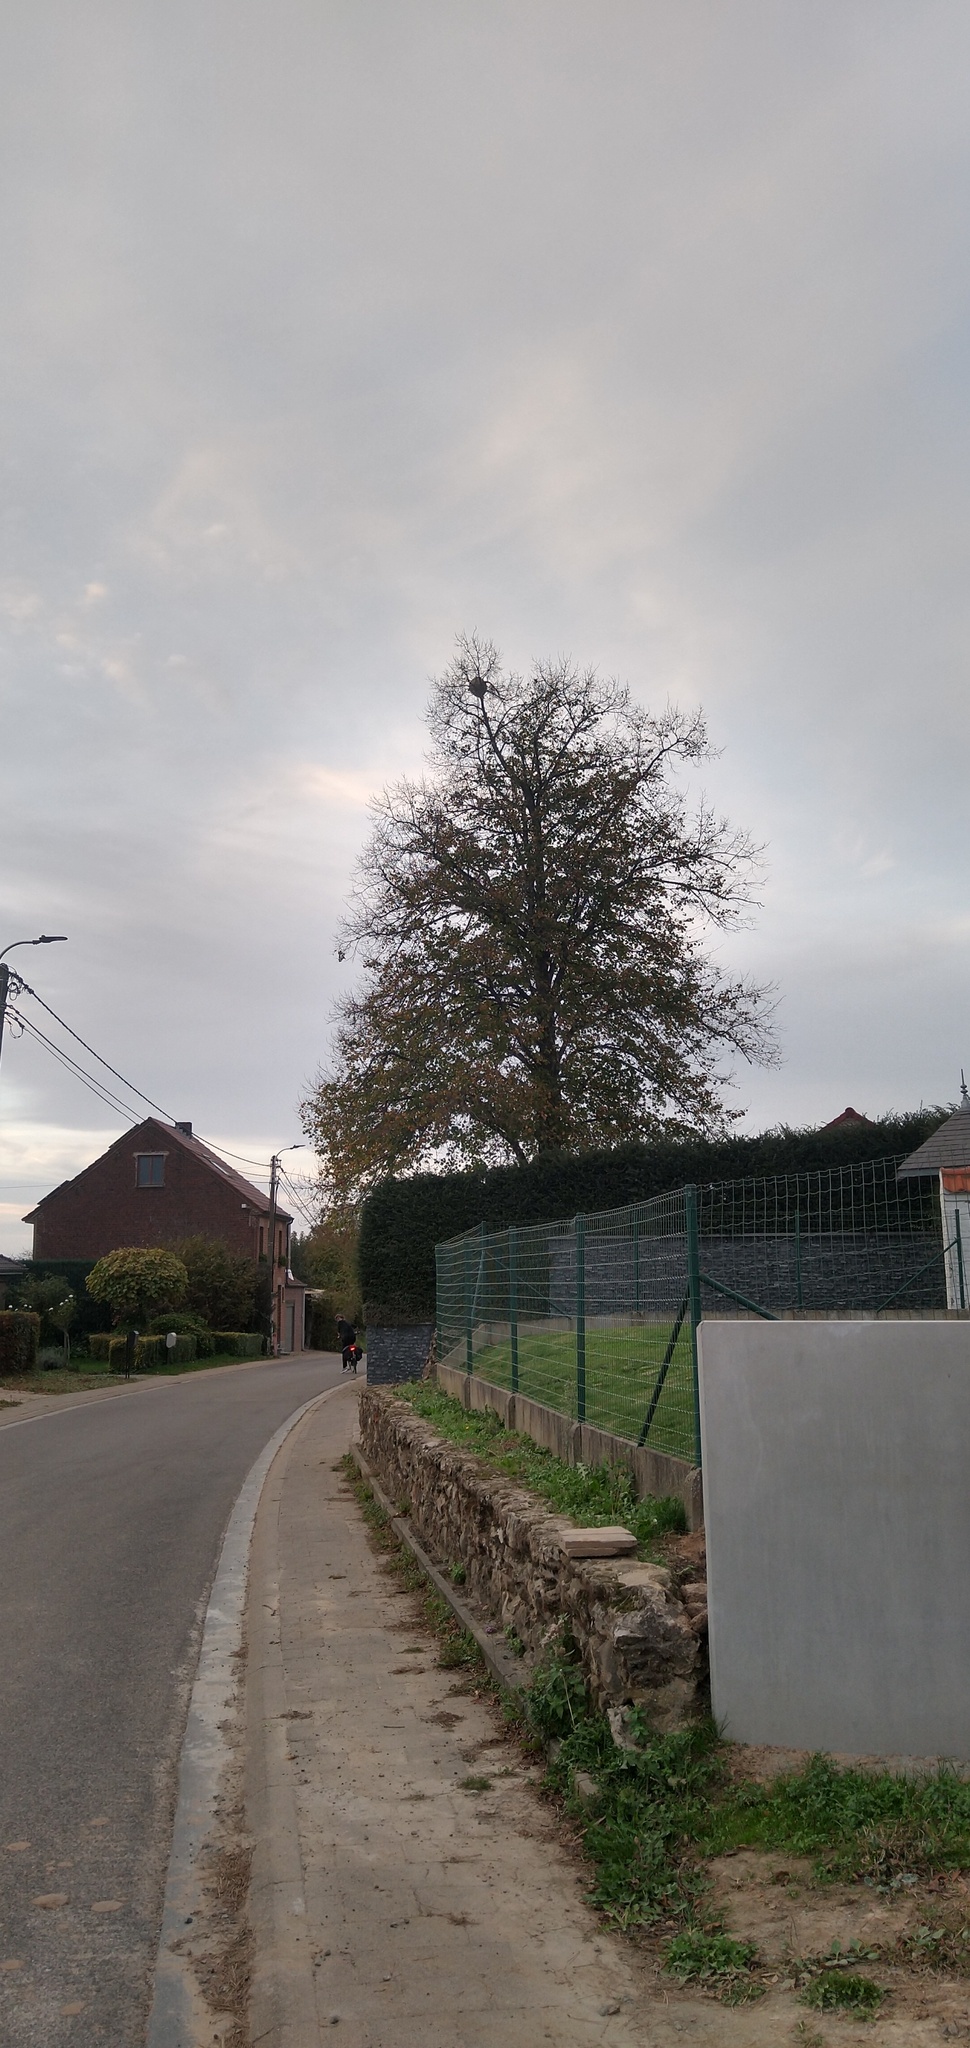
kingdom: Animalia
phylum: Arthropoda
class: Insecta
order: Hymenoptera
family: Vespidae
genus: Vespa
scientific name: Vespa velutina
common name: Asian hornet
